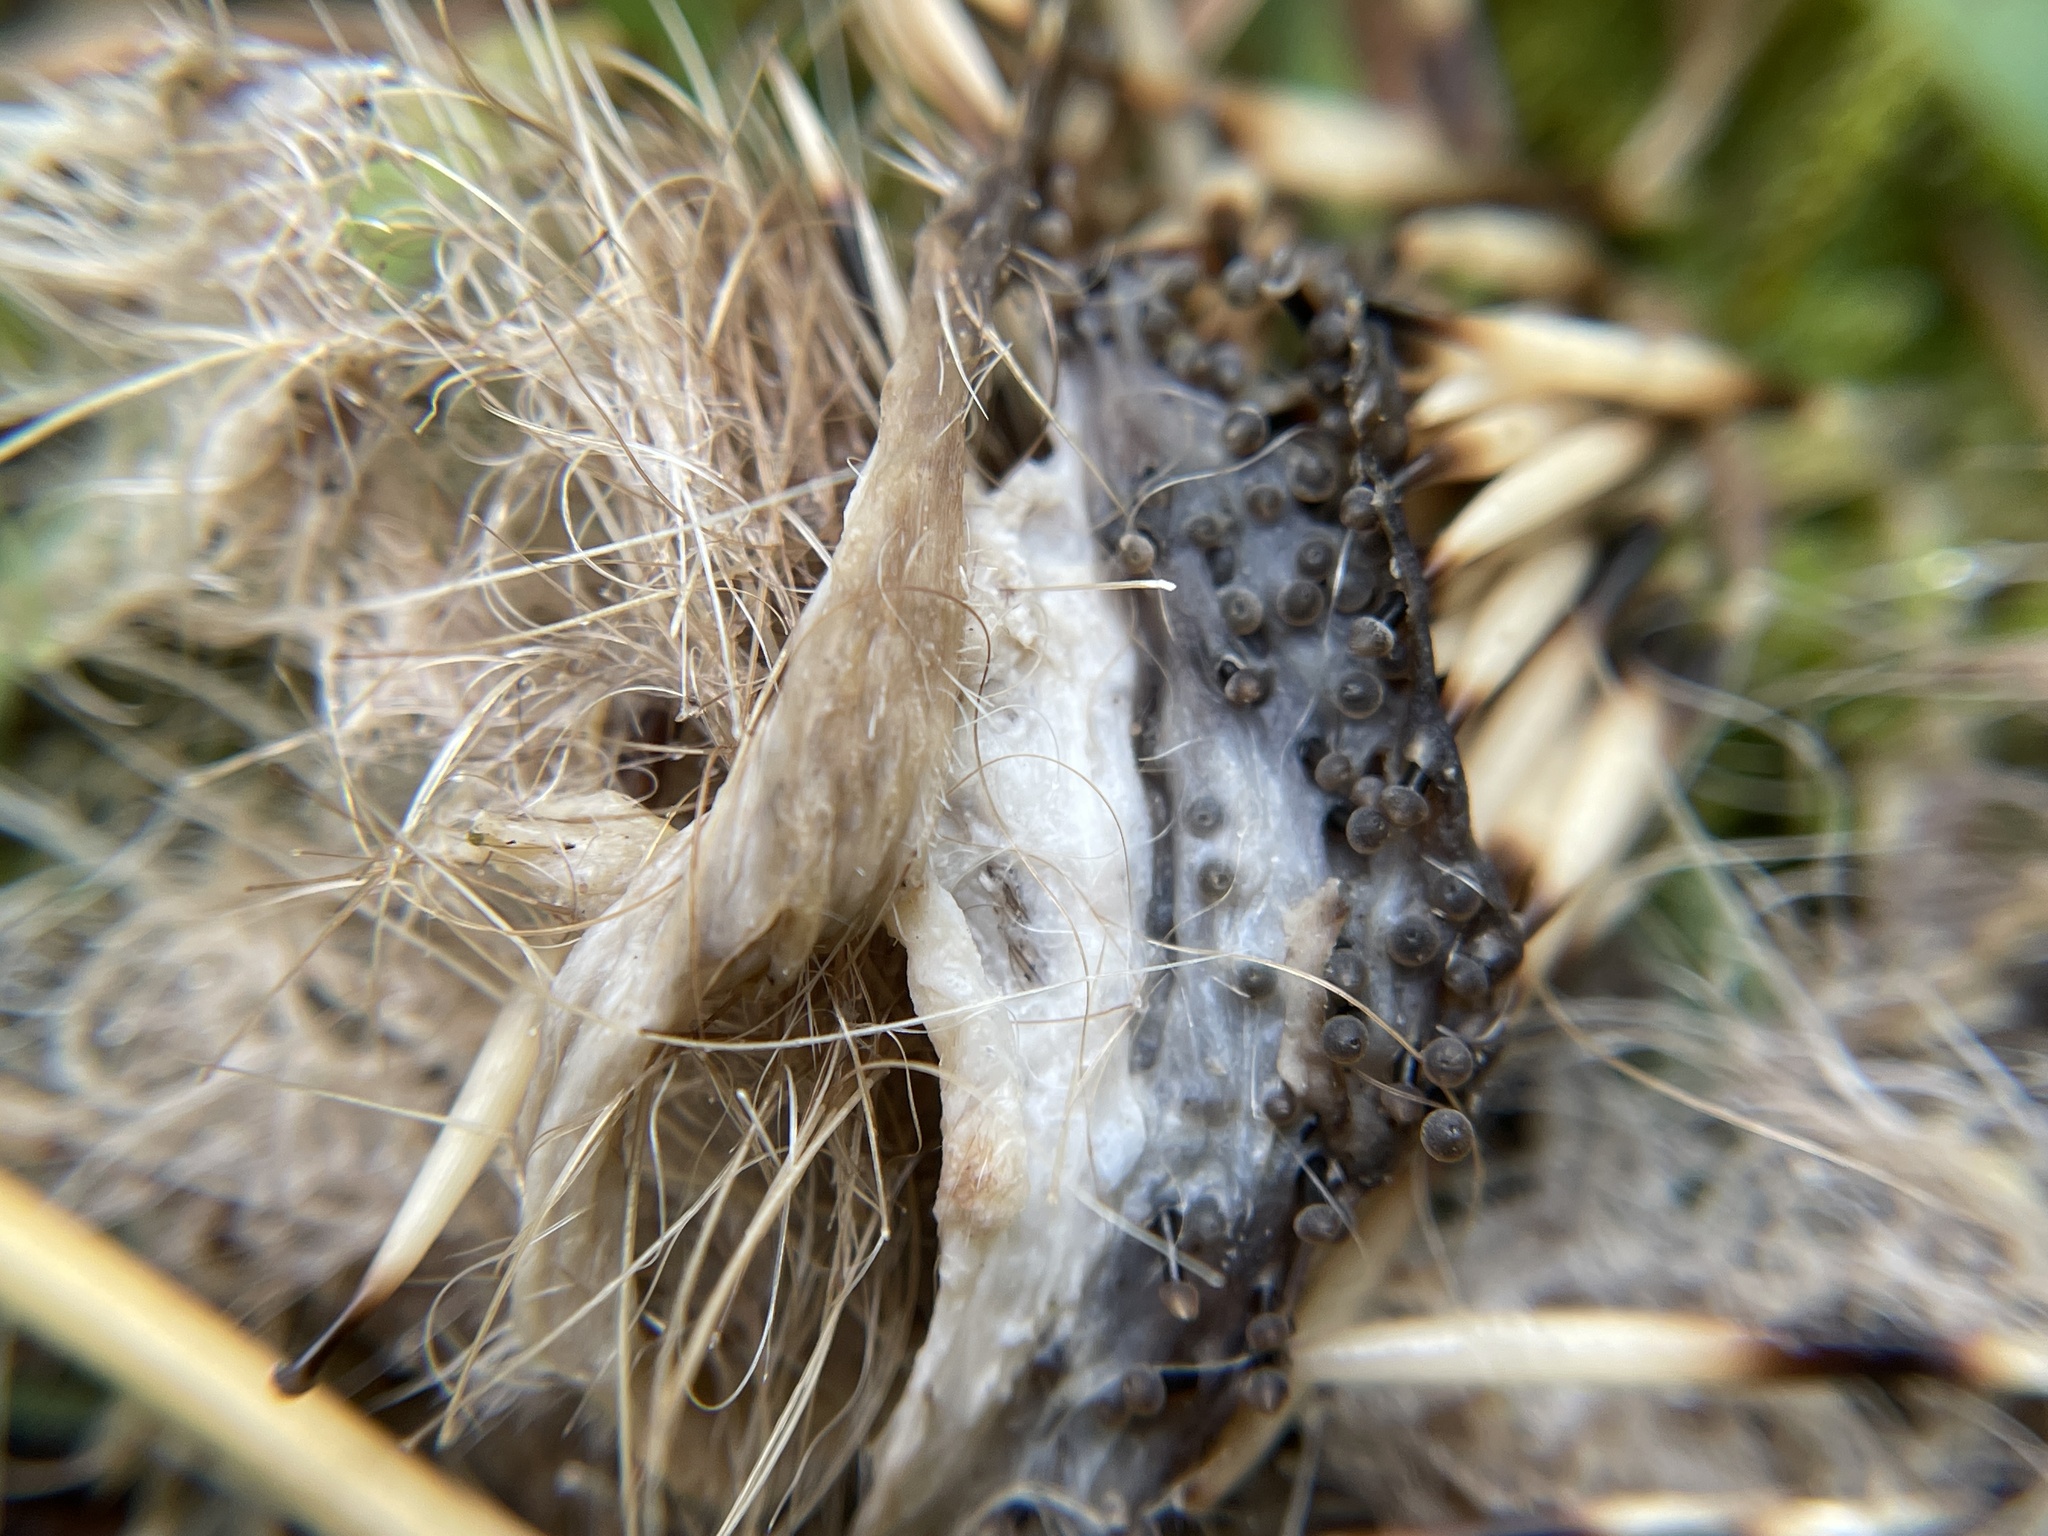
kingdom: Animalia
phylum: Chordata
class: Mammalia
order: Erinaceomorpha
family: Erinaceidae
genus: Erinaceus
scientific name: Erinaceus europaeus
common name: West european hedgehog
